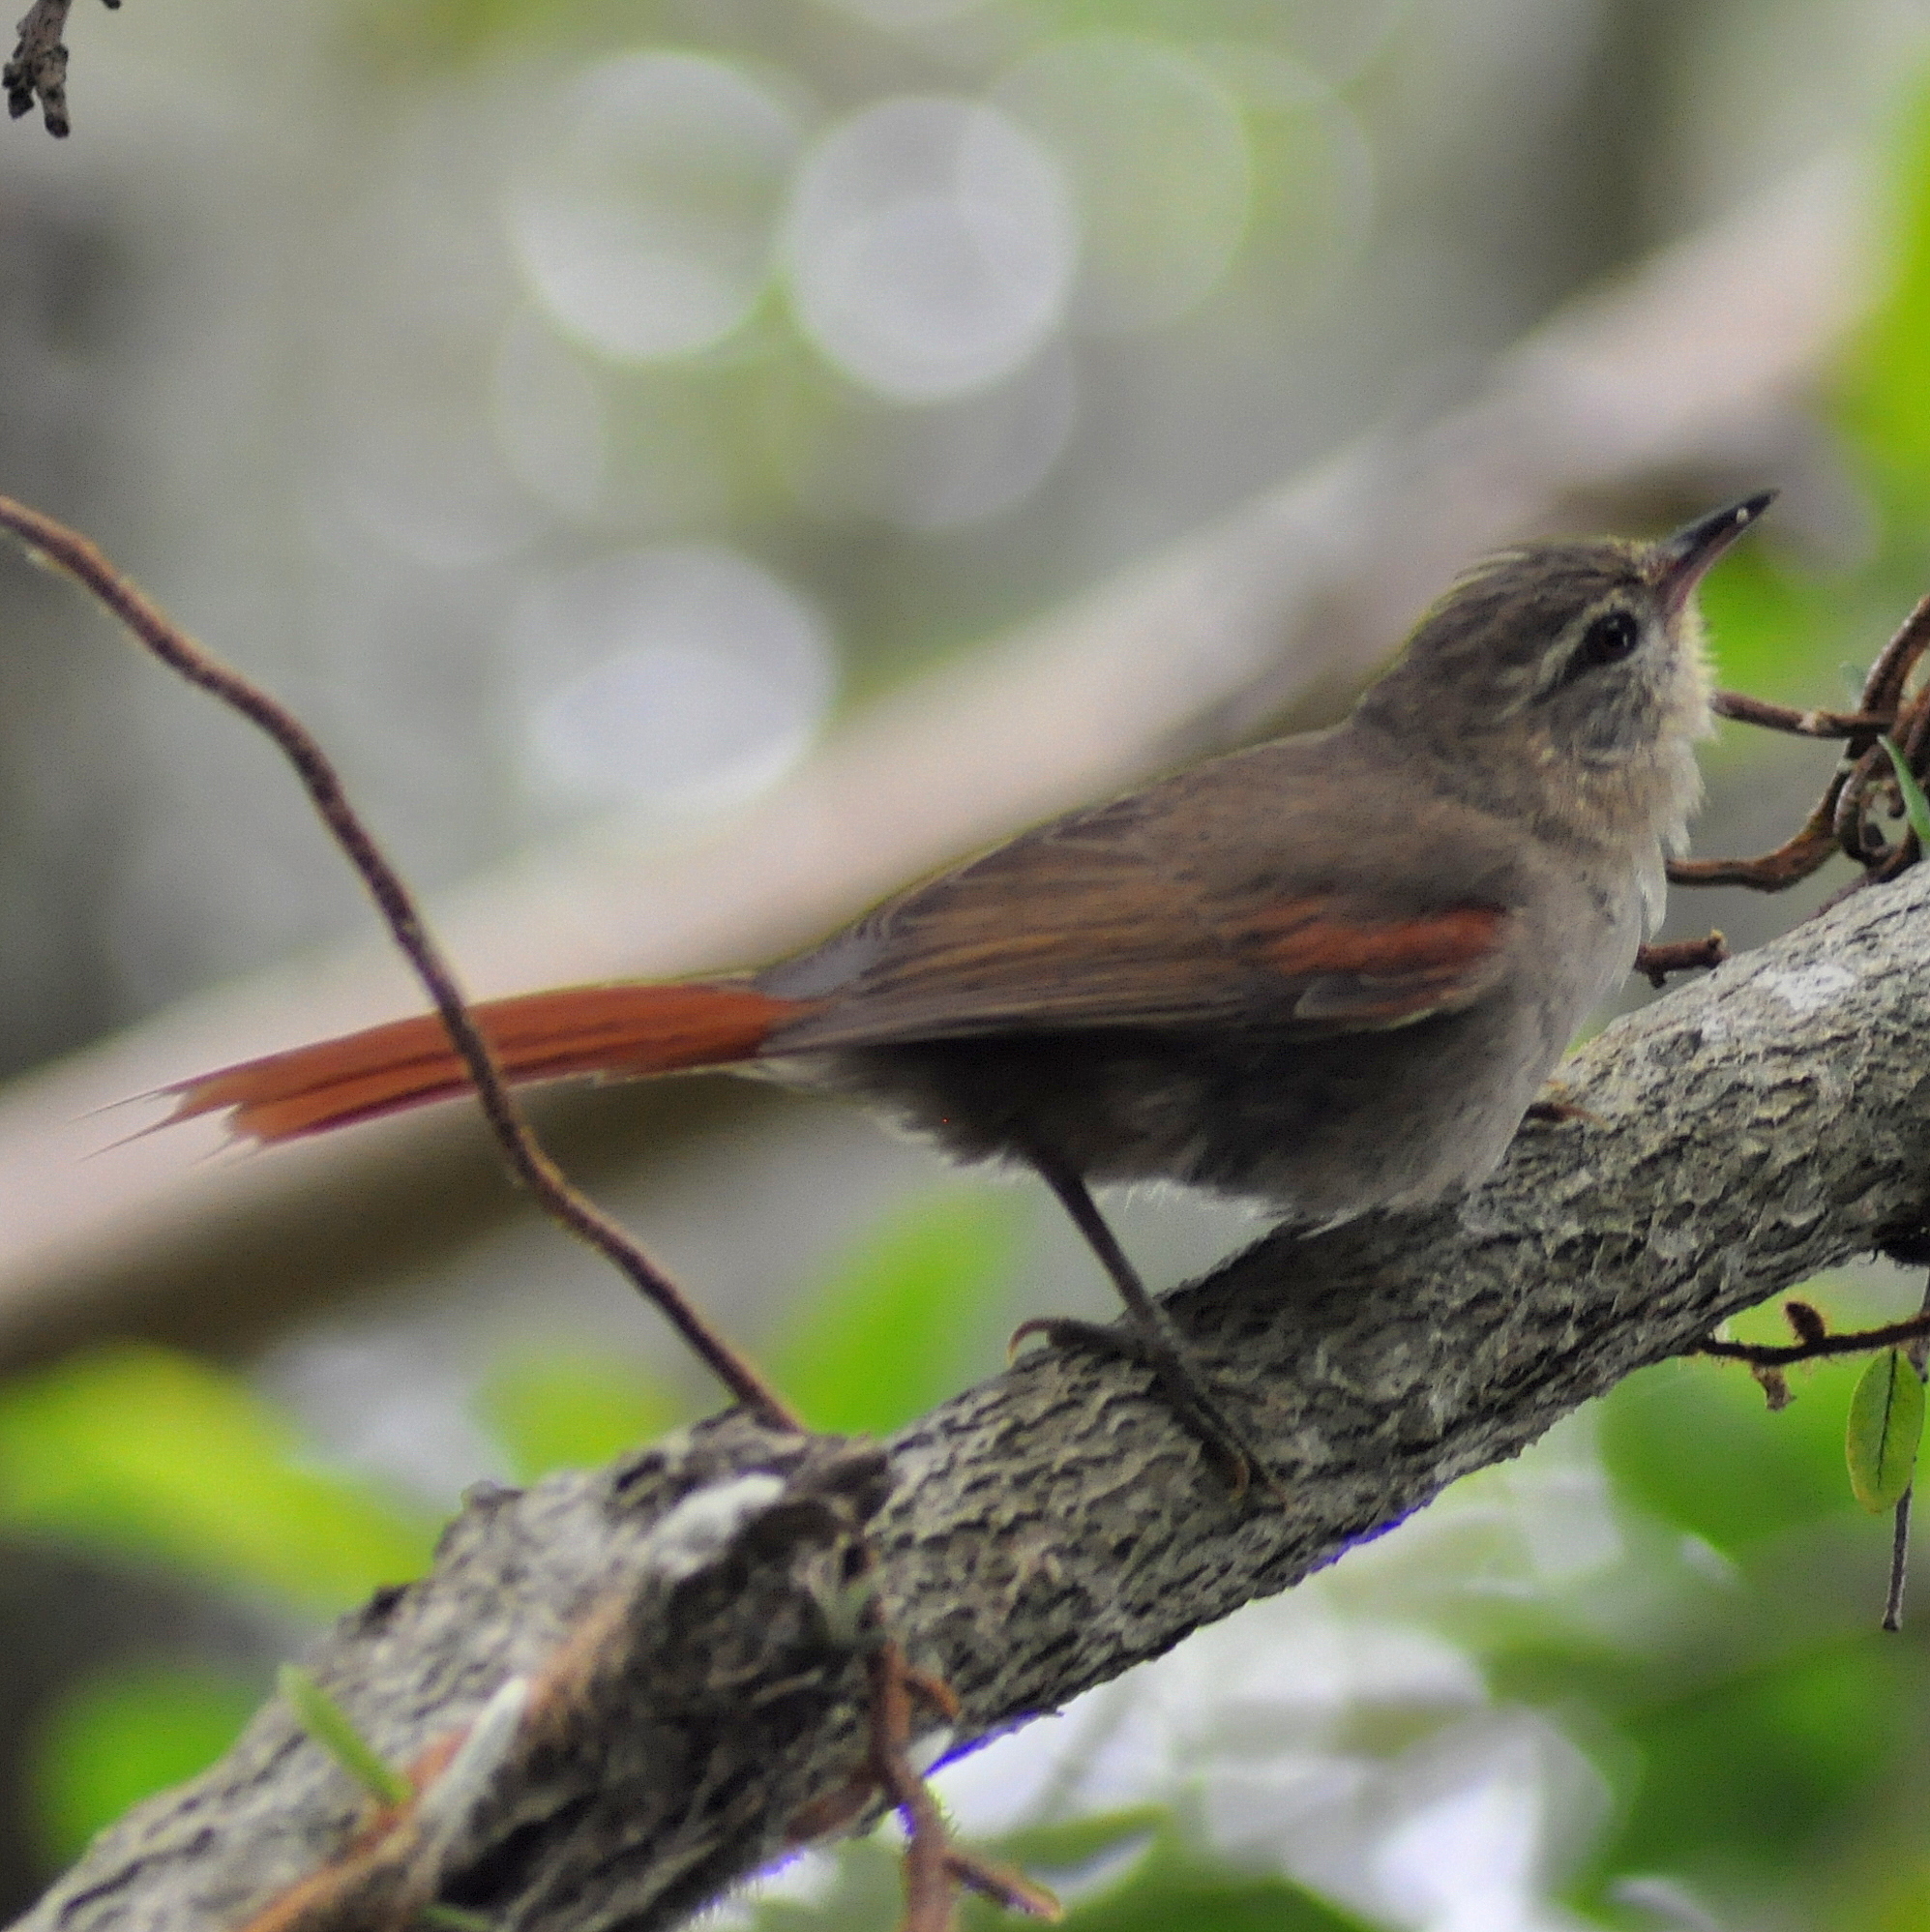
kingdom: Animalia
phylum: Chordata
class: Aves
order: Passeriformes
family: Furnariidae
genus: Cranioleuca
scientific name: Cranioleuca obsoleta
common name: Olive spinetail
